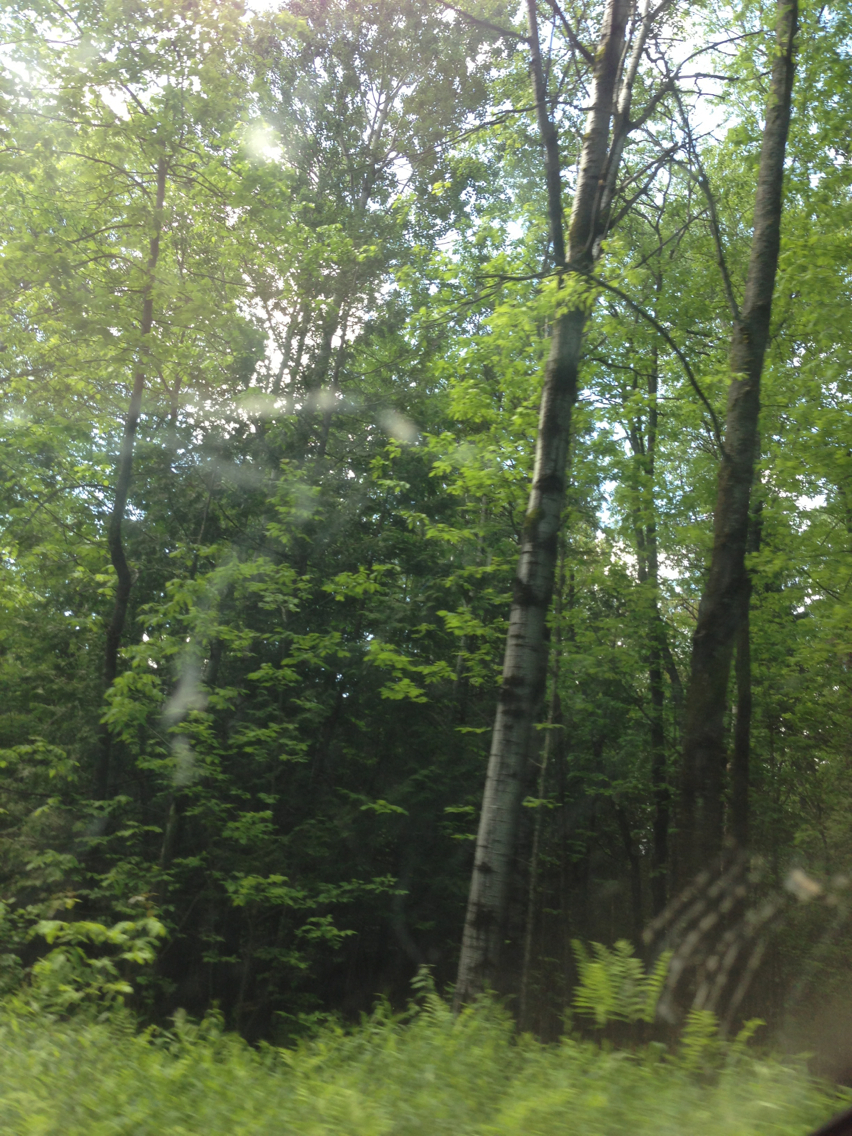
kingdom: Plantae
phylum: Tracheophyta
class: Magnoliopsida
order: Malpighiales
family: Salicaceae
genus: Populus
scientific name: Populus tremuloides
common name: Quaking aspen
